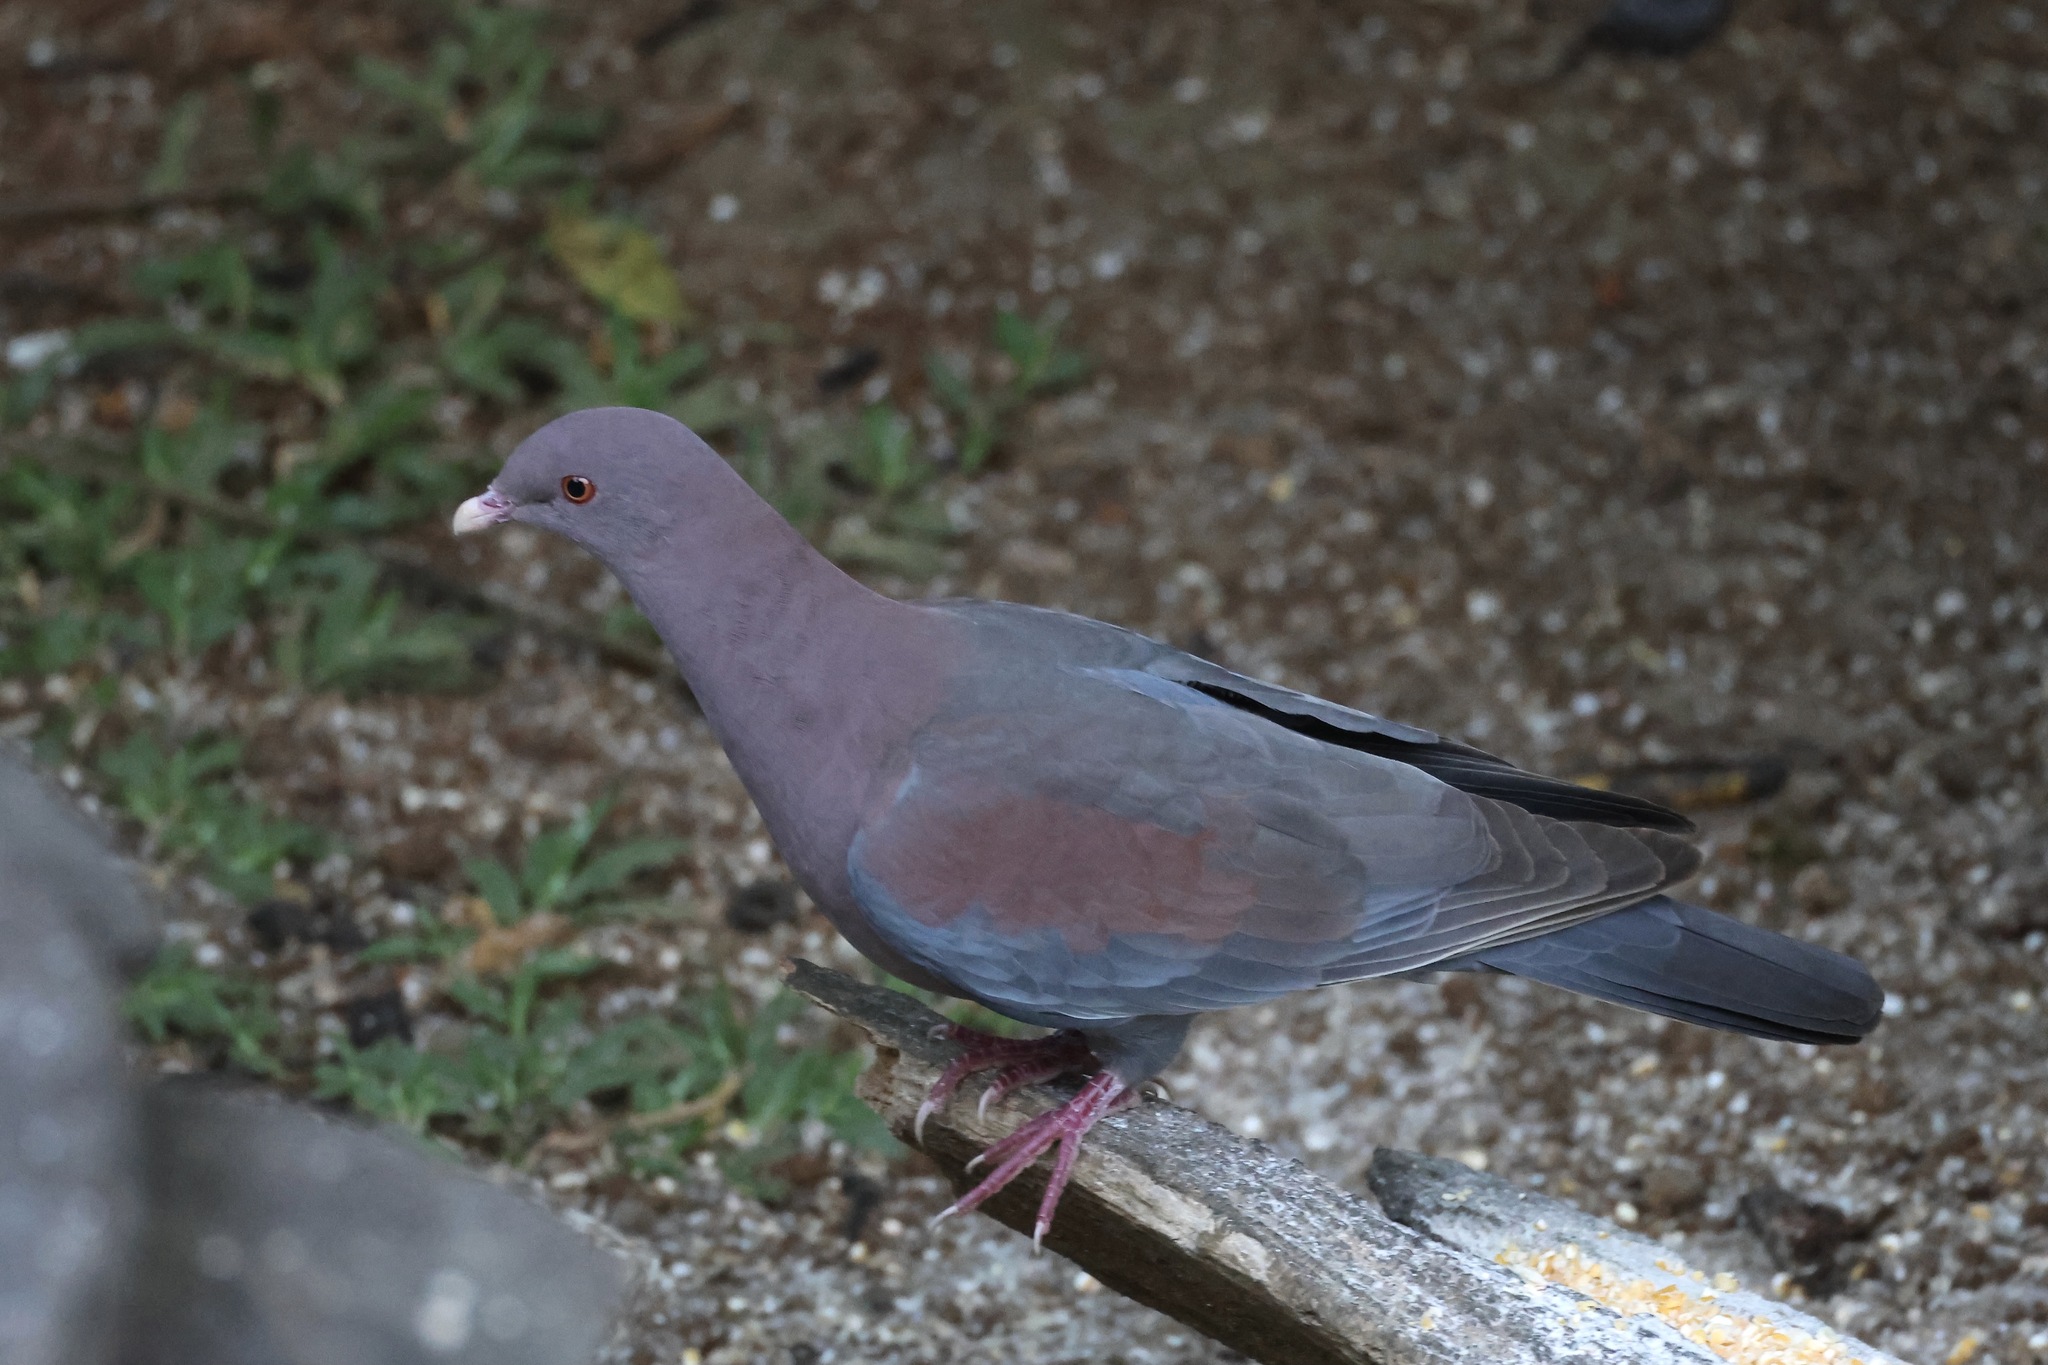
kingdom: Animalia
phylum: Chordata
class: Aves
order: Columbiformes
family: Columbidae
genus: Patagioenas
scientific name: Patagioenas flavirostris
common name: Red-billed pigeon
